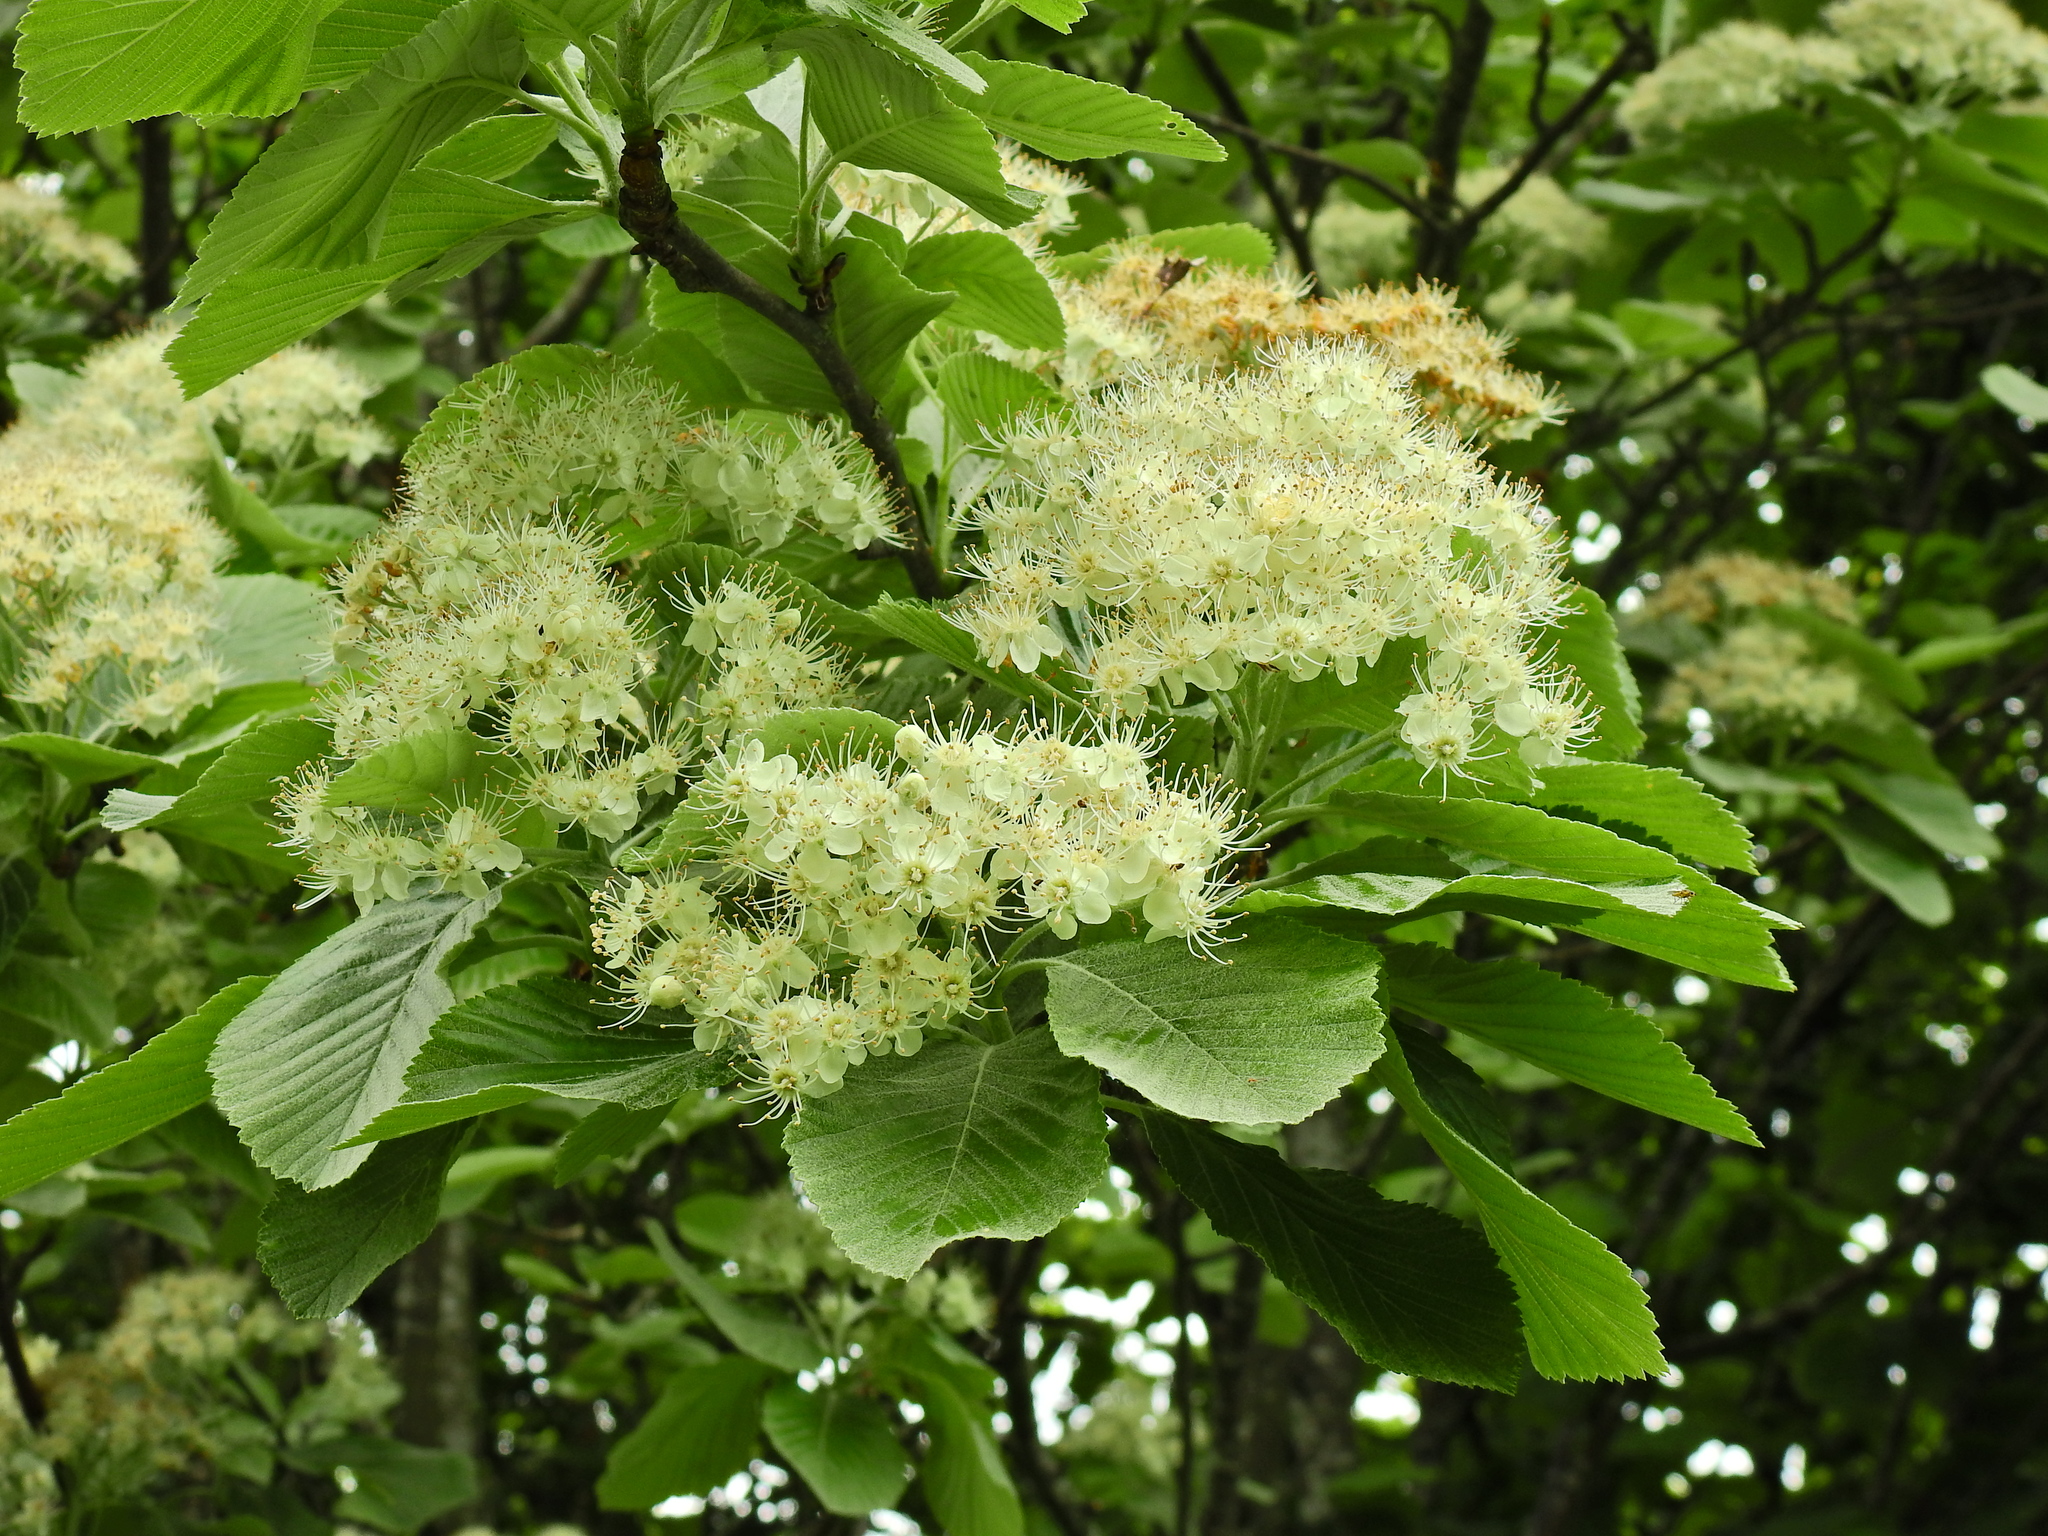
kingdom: Plantae
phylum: Tracheophyta
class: Magnoliopsida
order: Rosales
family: Rosaceae
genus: Aria
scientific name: Aria edulis
